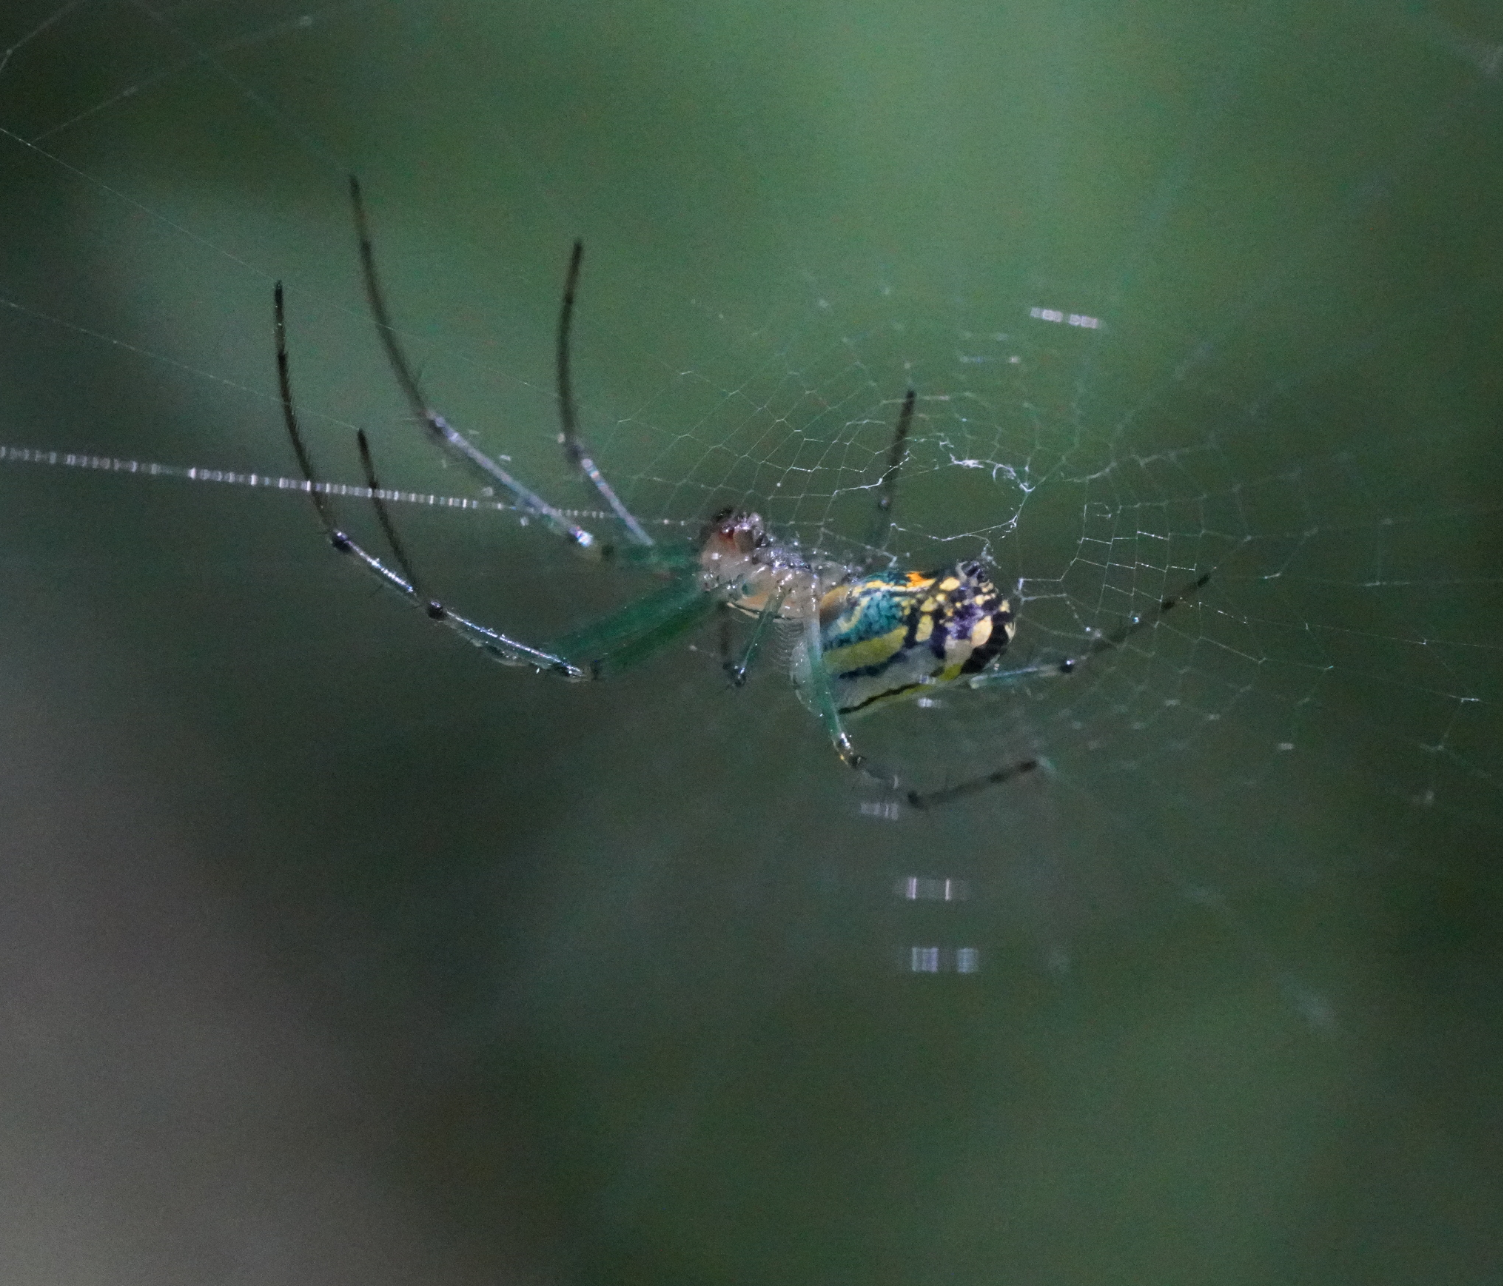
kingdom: Animalia
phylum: Arthropoda
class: Arachnida
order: Araneae
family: Tetragnathidae
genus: Leucauge
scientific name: Leucauge venusta
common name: Longjawed orb weavers
